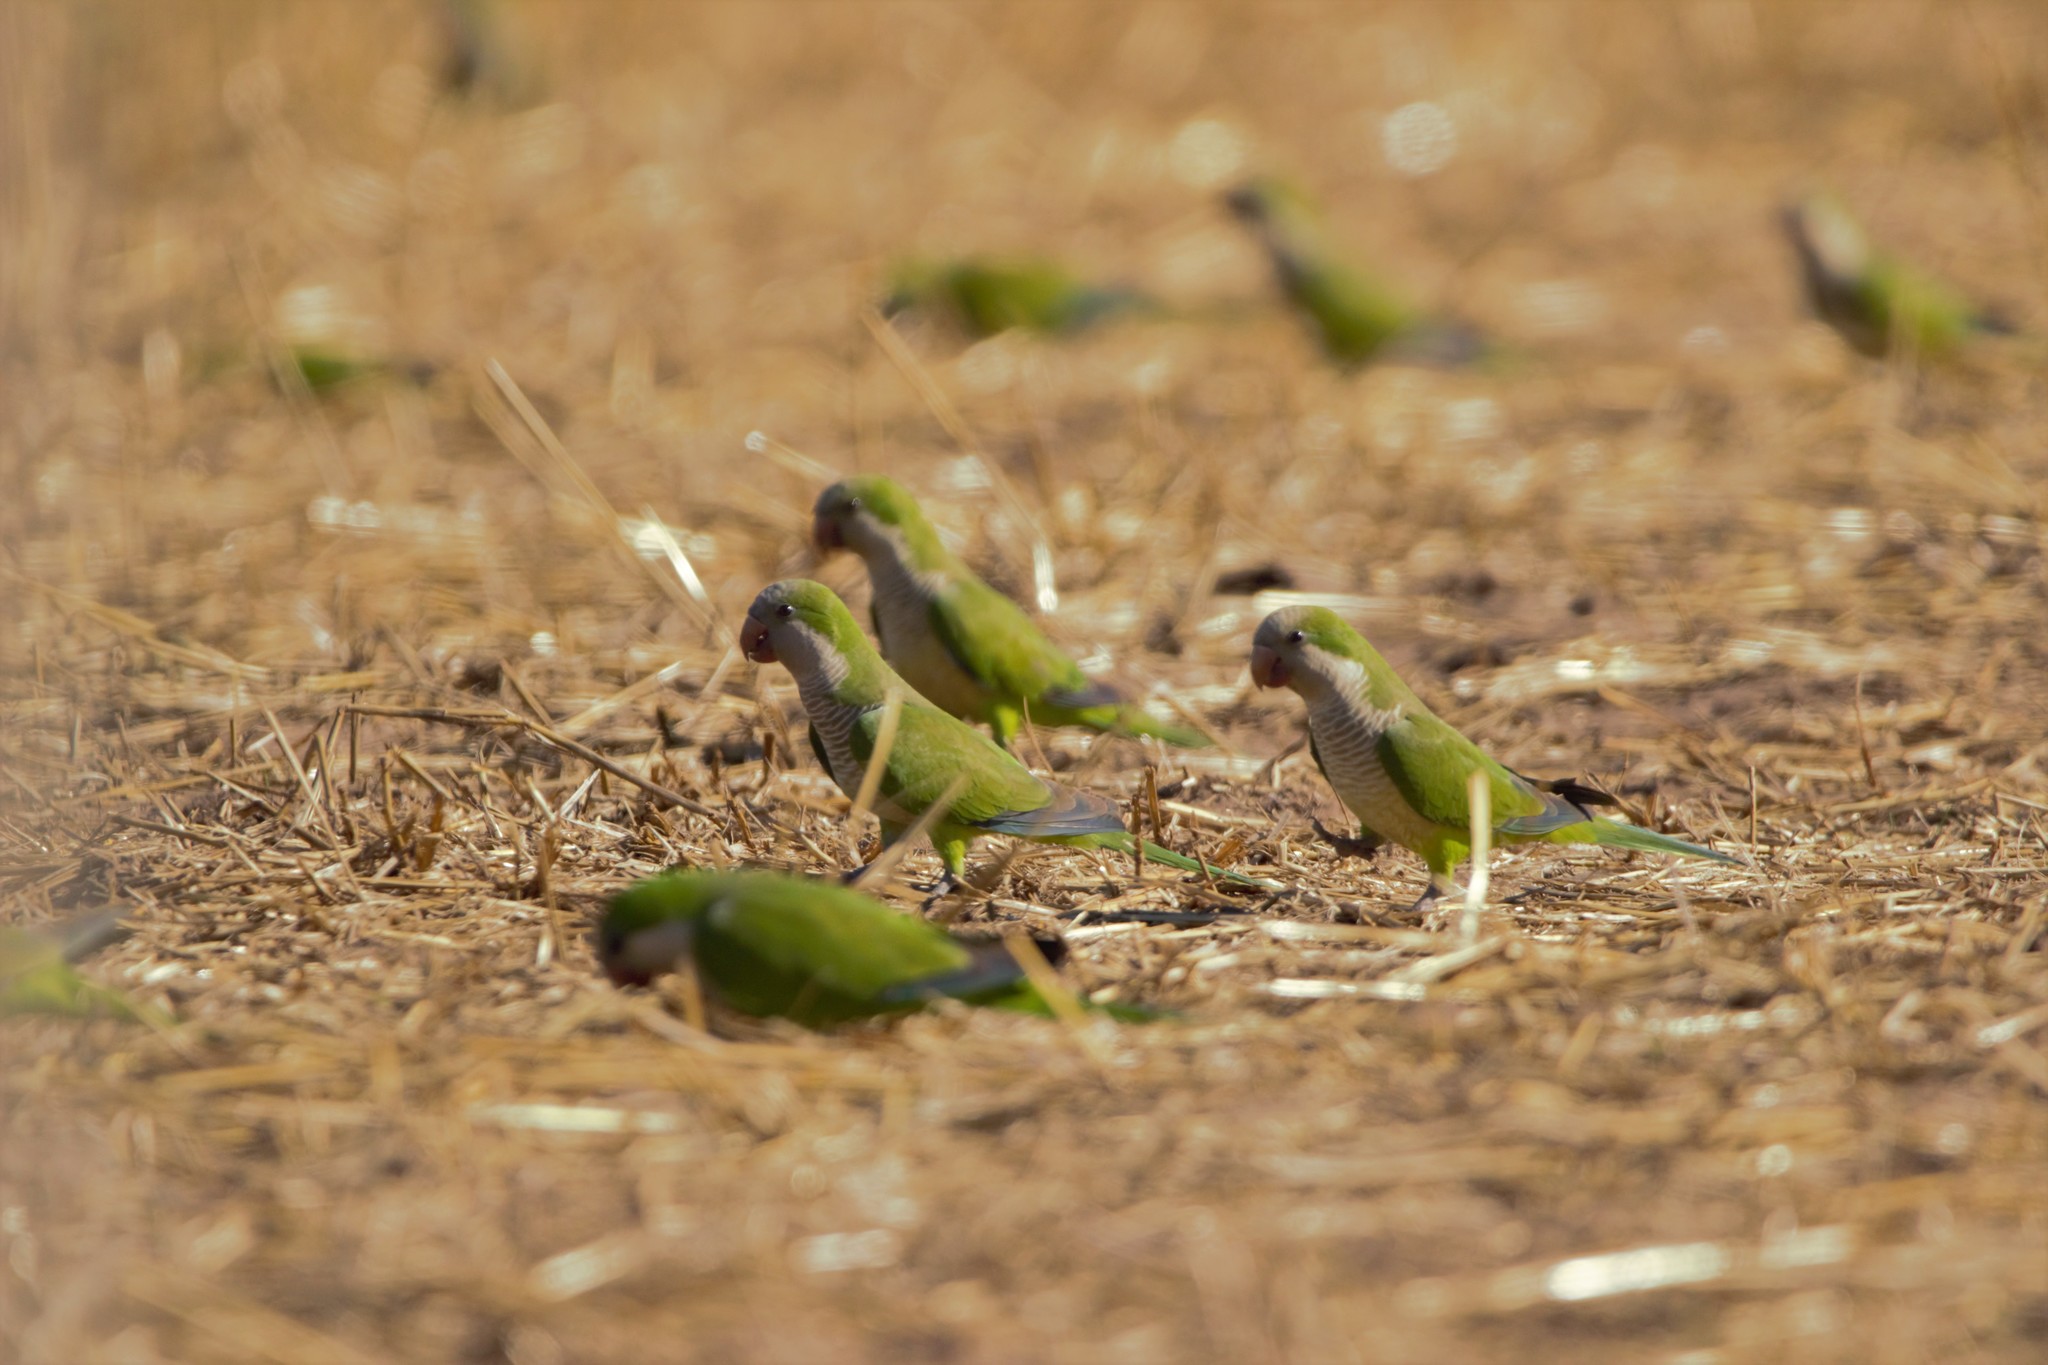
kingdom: Animalia
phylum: Chordata
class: Aves
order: Psittaciformes
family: Psittacidae
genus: Myiopsitta
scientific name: Myiopsitta monachus
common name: Monk parakeet
